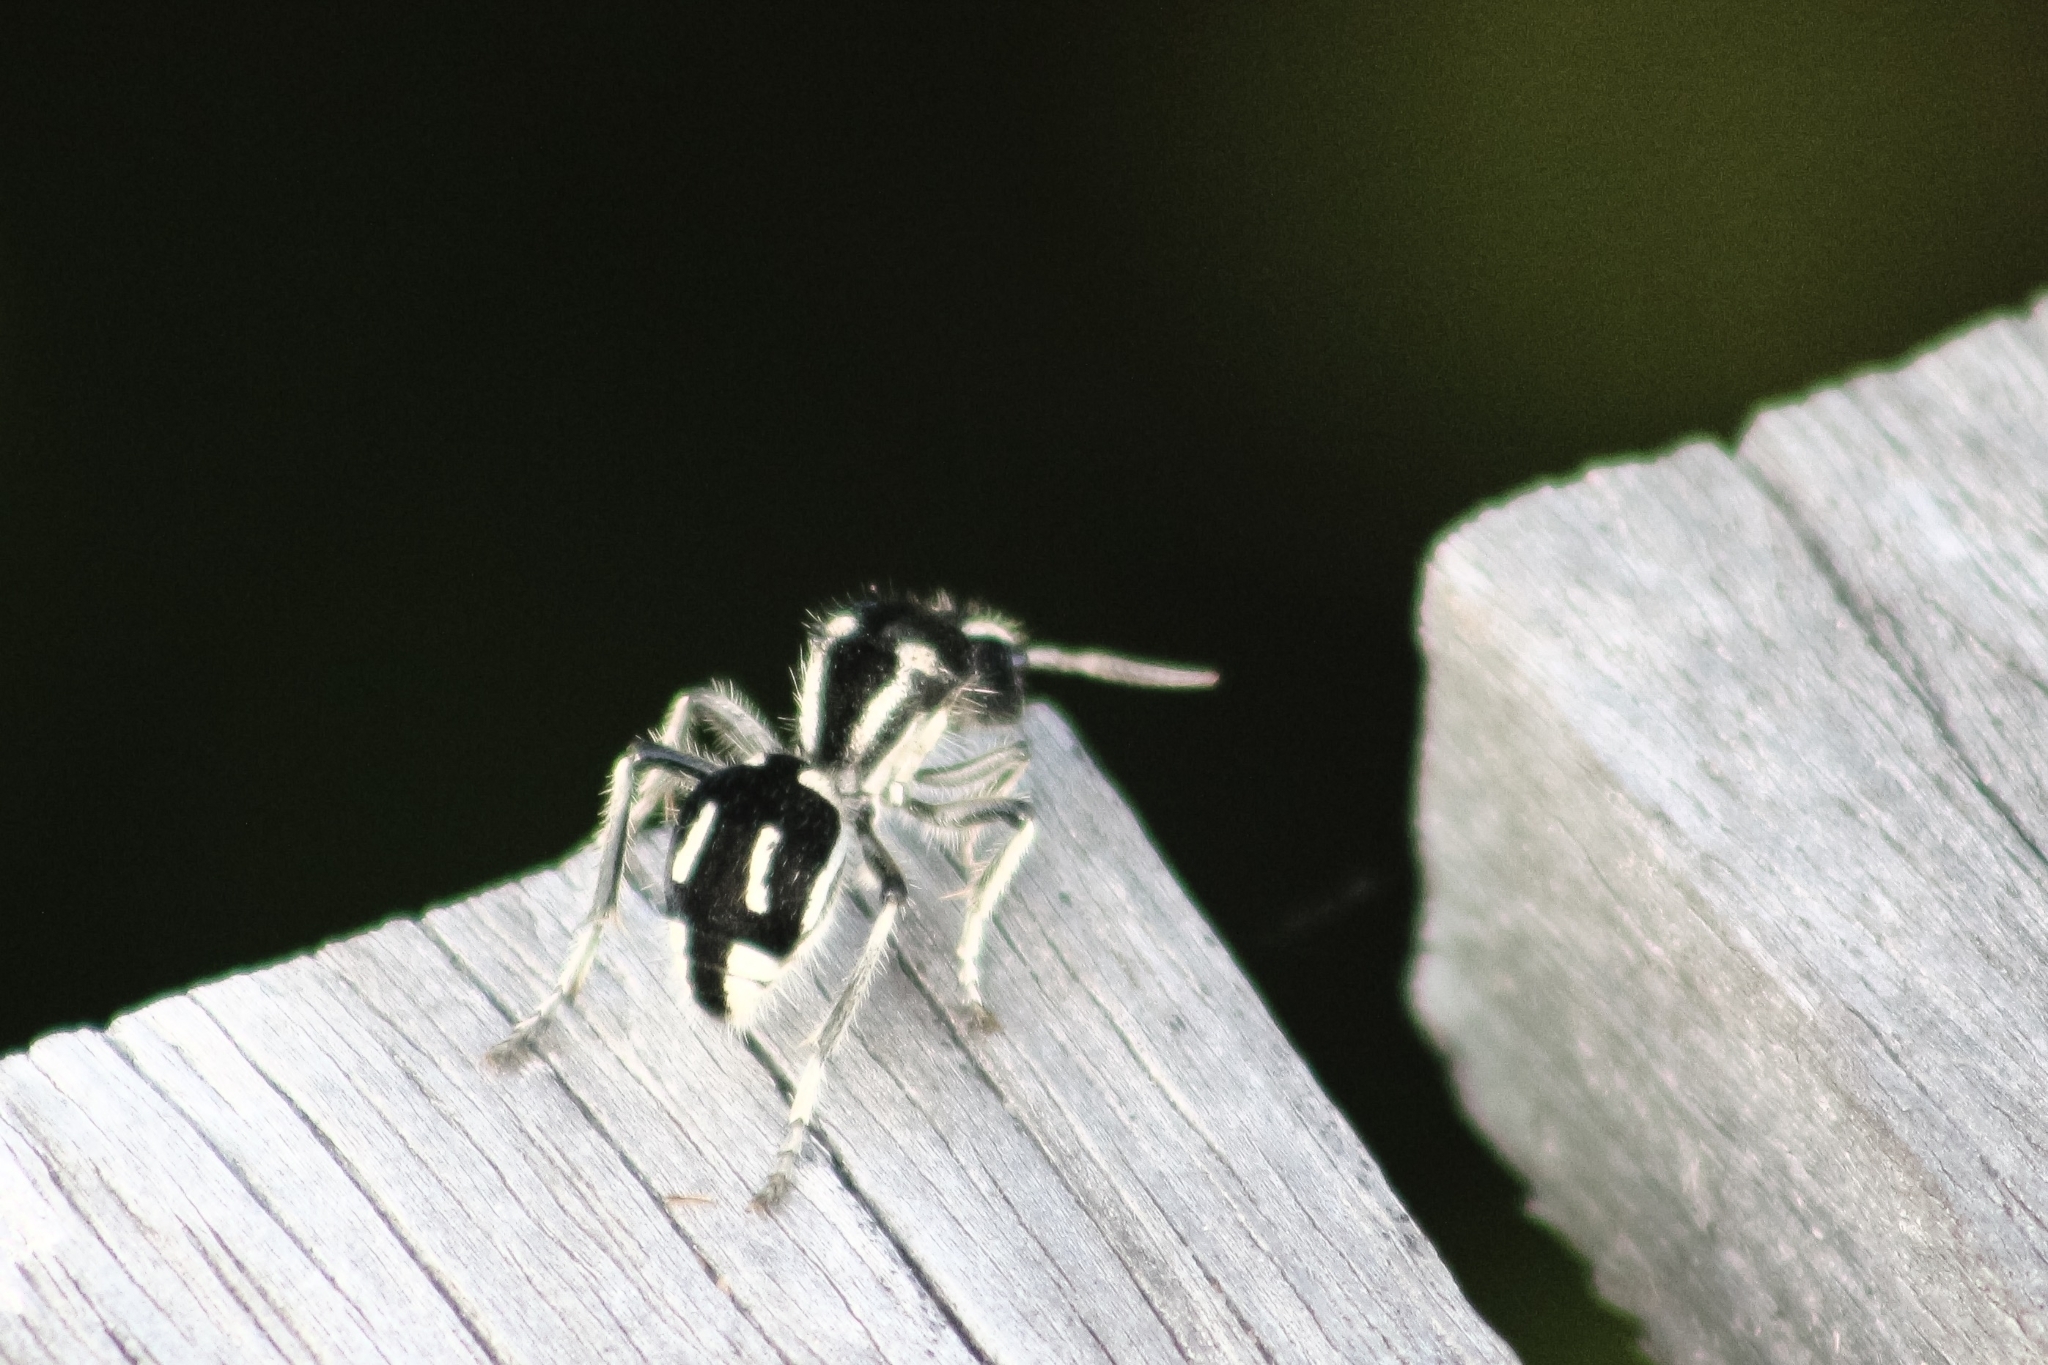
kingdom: Animalia
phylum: Arthropoda
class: Insecta
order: Hymenoptera
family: Mutillidae
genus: Hoplomutilla
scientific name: Hoplomutilla
